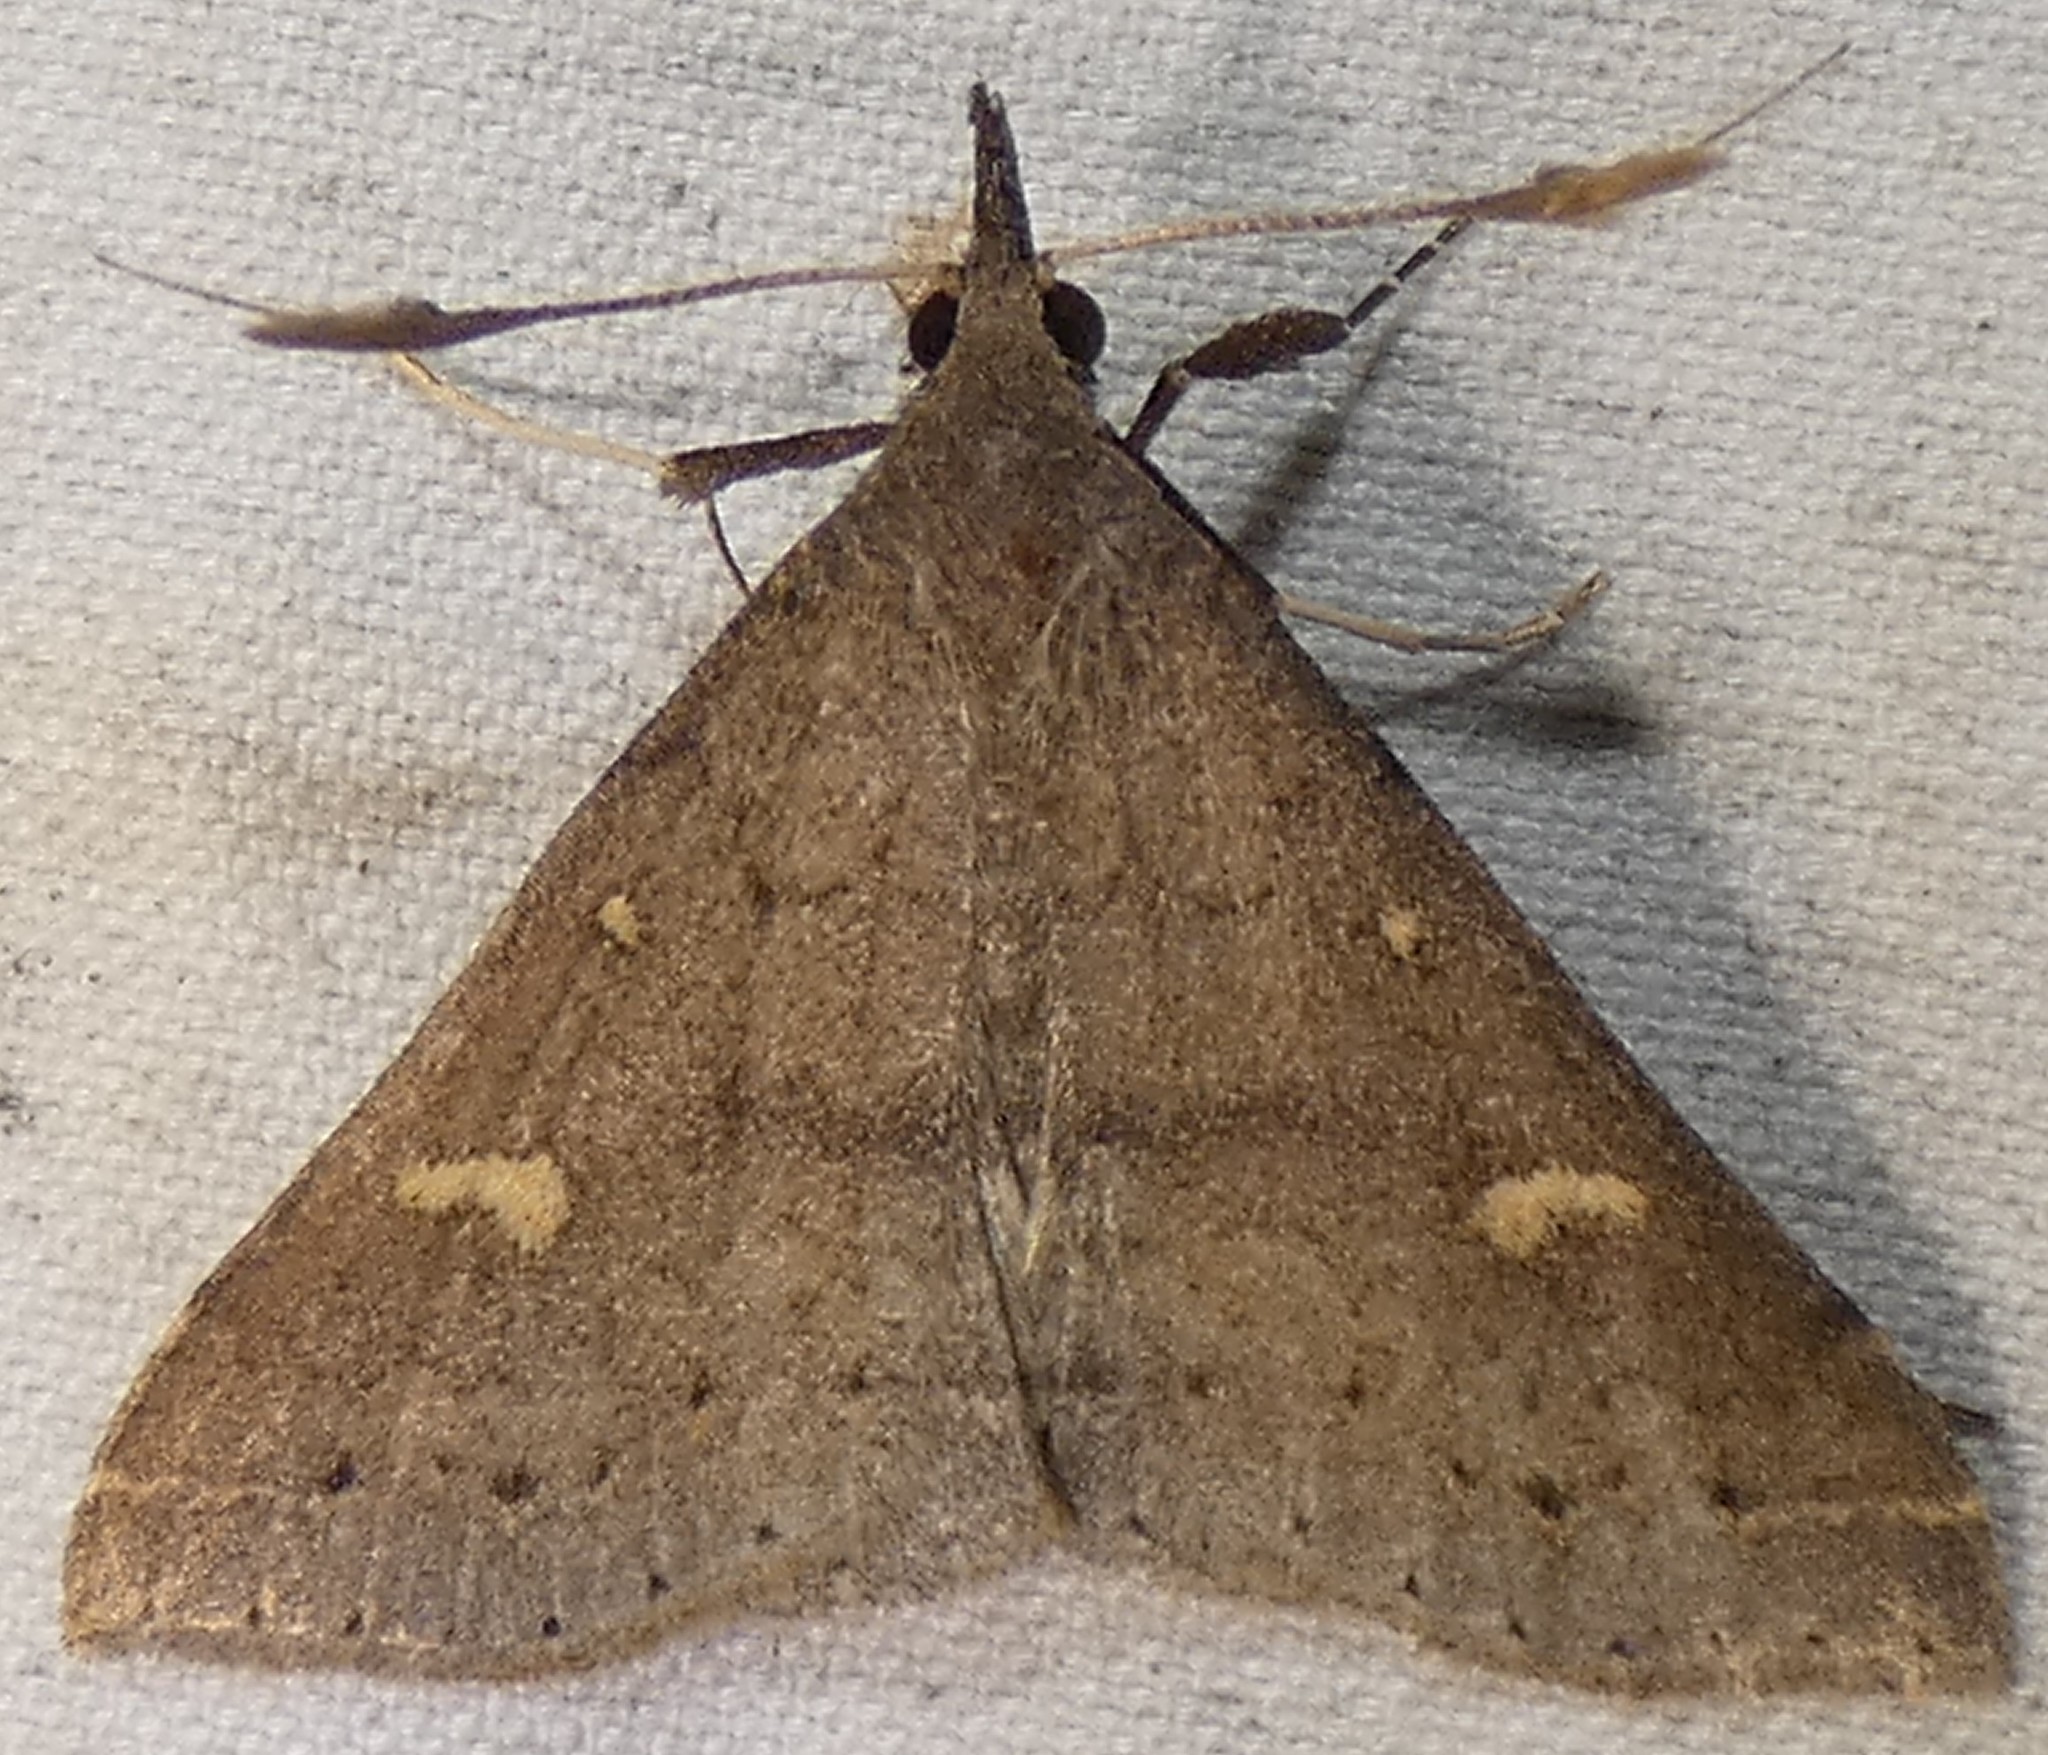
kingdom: Animalia
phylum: Arthropoda
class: Insecta
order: Lepidoptera
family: Erebidae
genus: Renia
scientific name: Renia adspergillus
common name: Speckled renia moth
